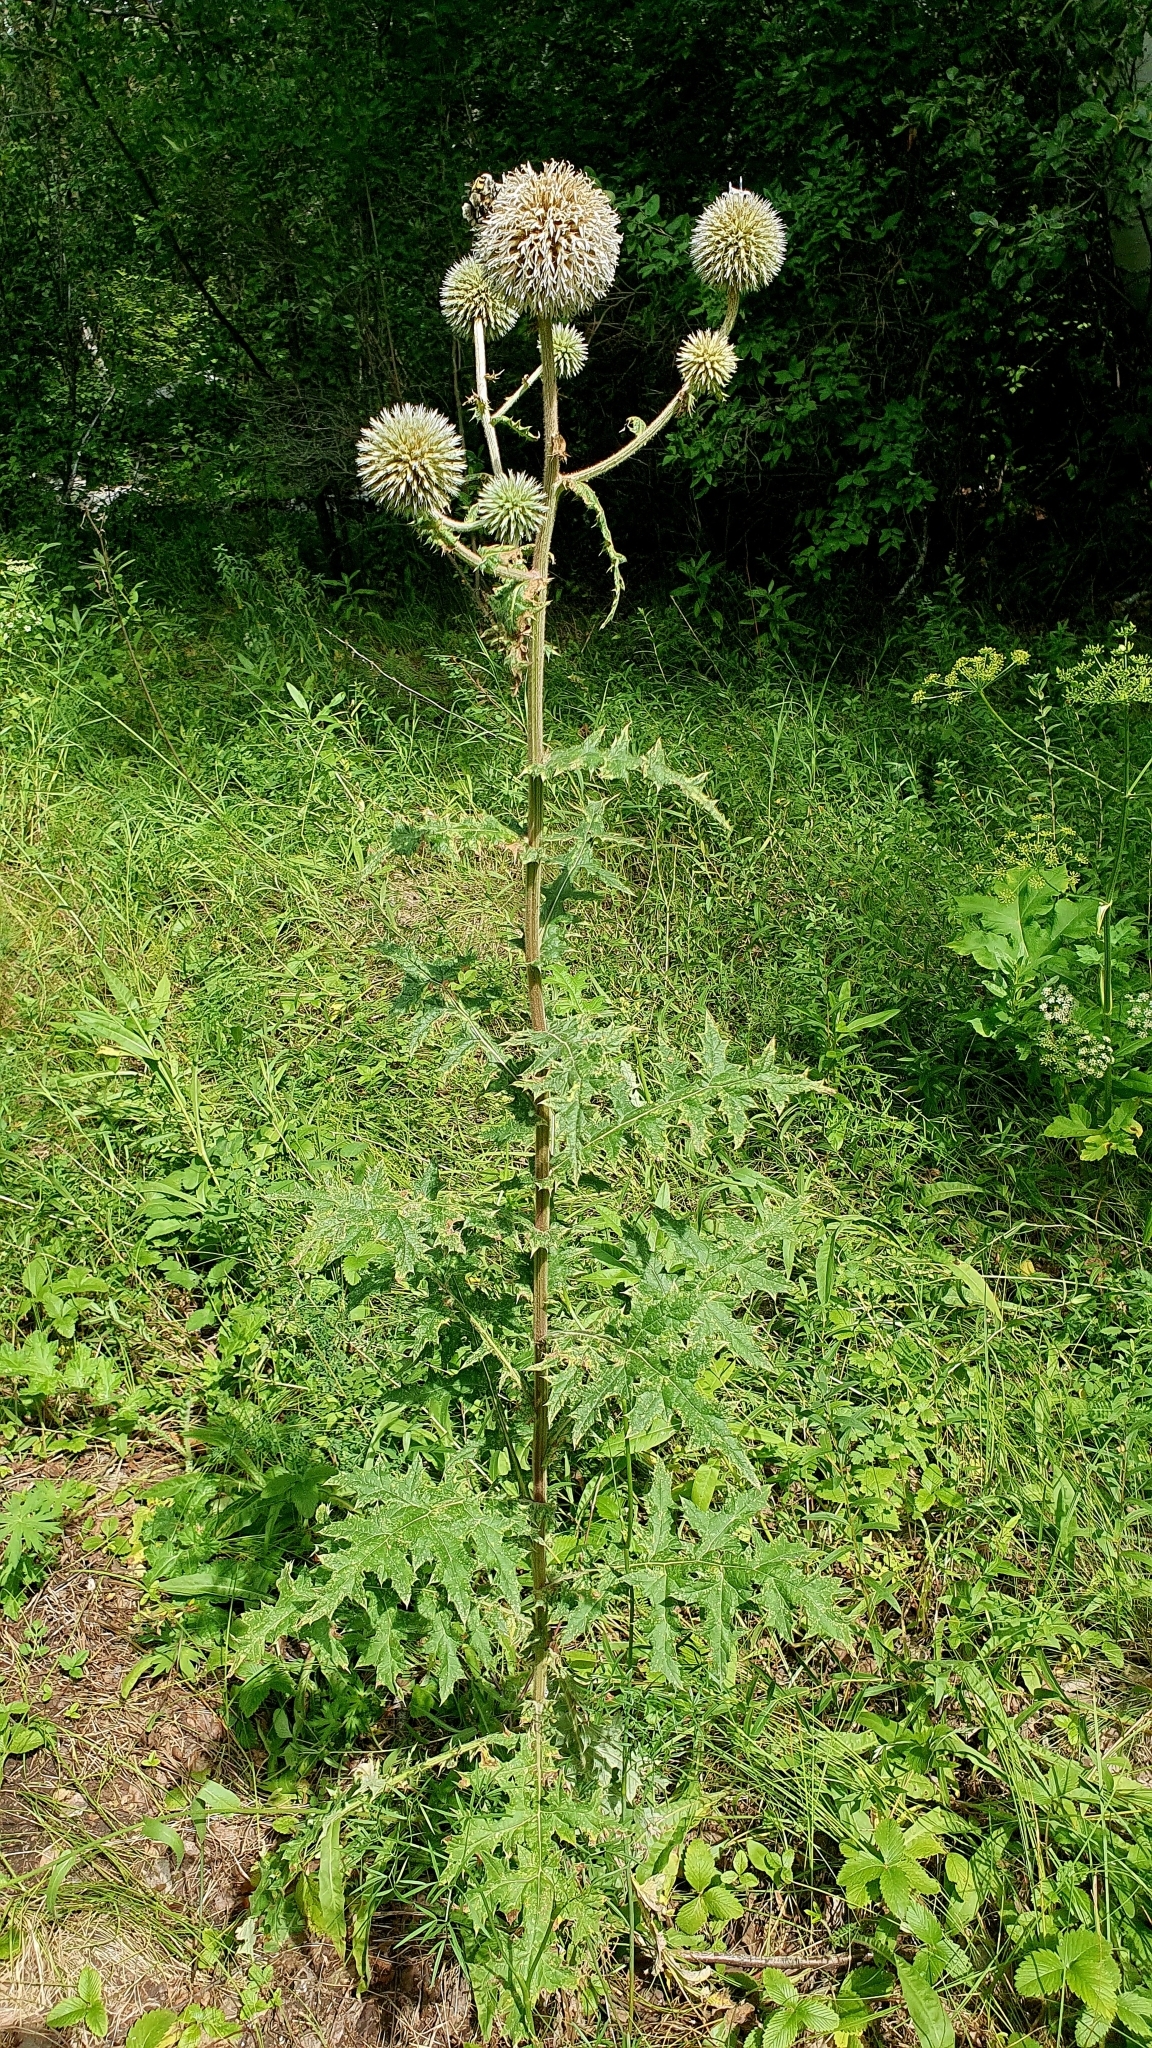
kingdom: Plantae
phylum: Tracheophyta
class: Magnoliopsida
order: Asterales
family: Asteraceae
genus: Echinops
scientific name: Echinops sphaerocephalus
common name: Glandular globe-thistle
